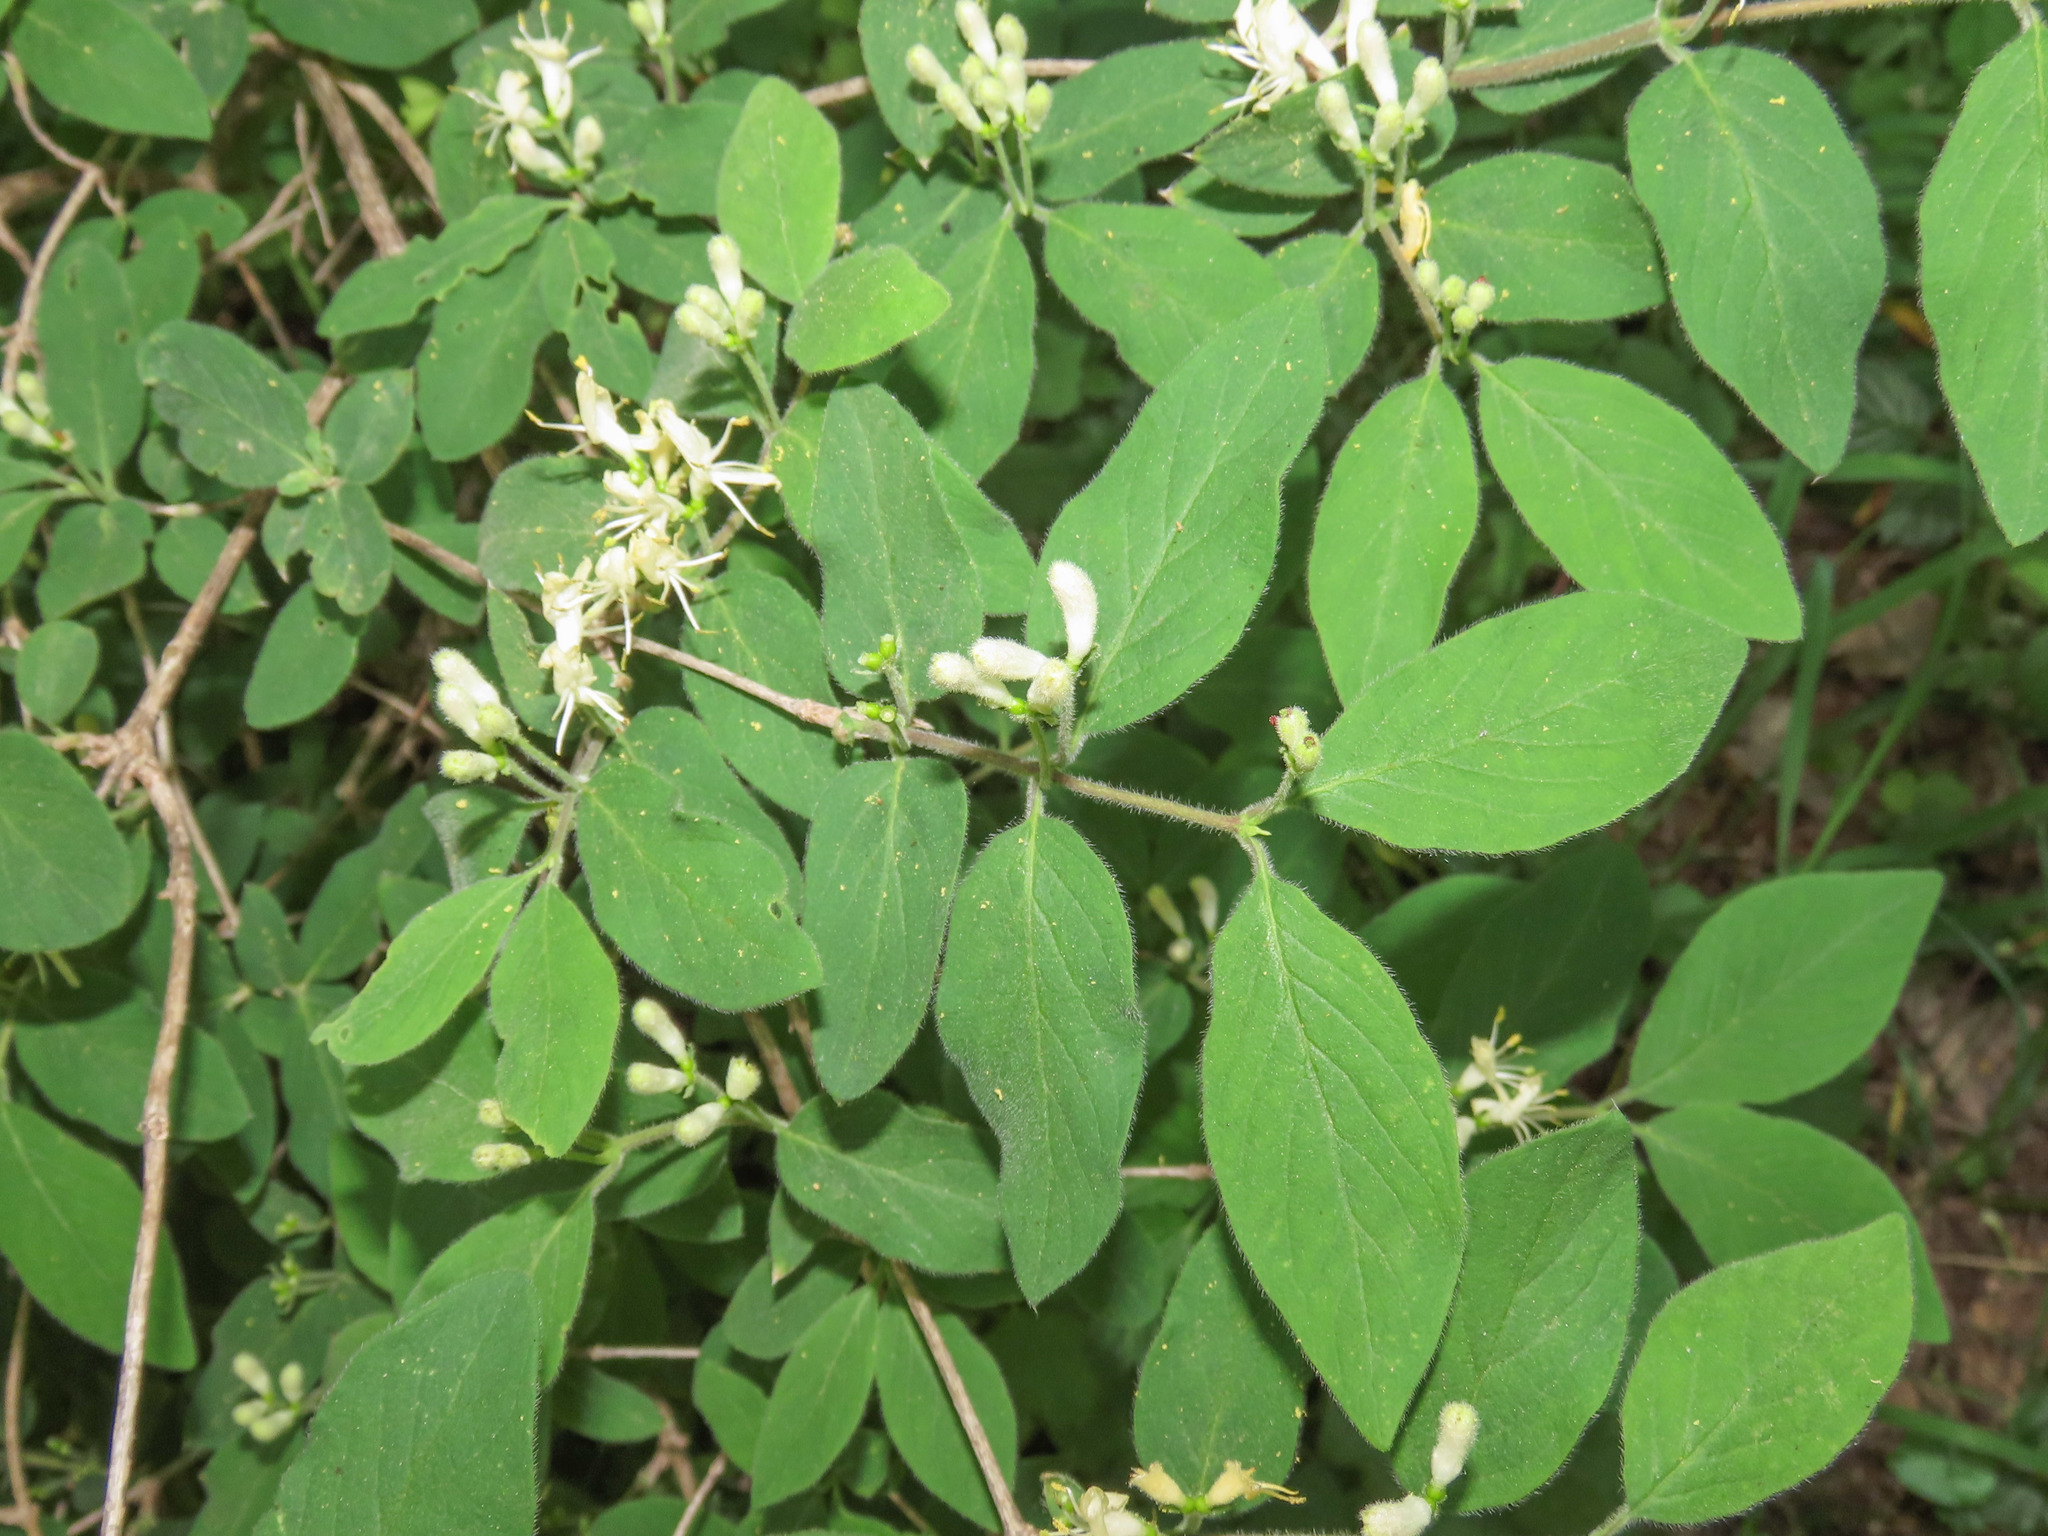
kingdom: Plantae
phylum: Tracheophyta
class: Magnoliopsida
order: Dipsacales
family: Caprifoliaceae
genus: Lonicera
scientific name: Lonicera xylosteum
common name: Fly honeysuckle
